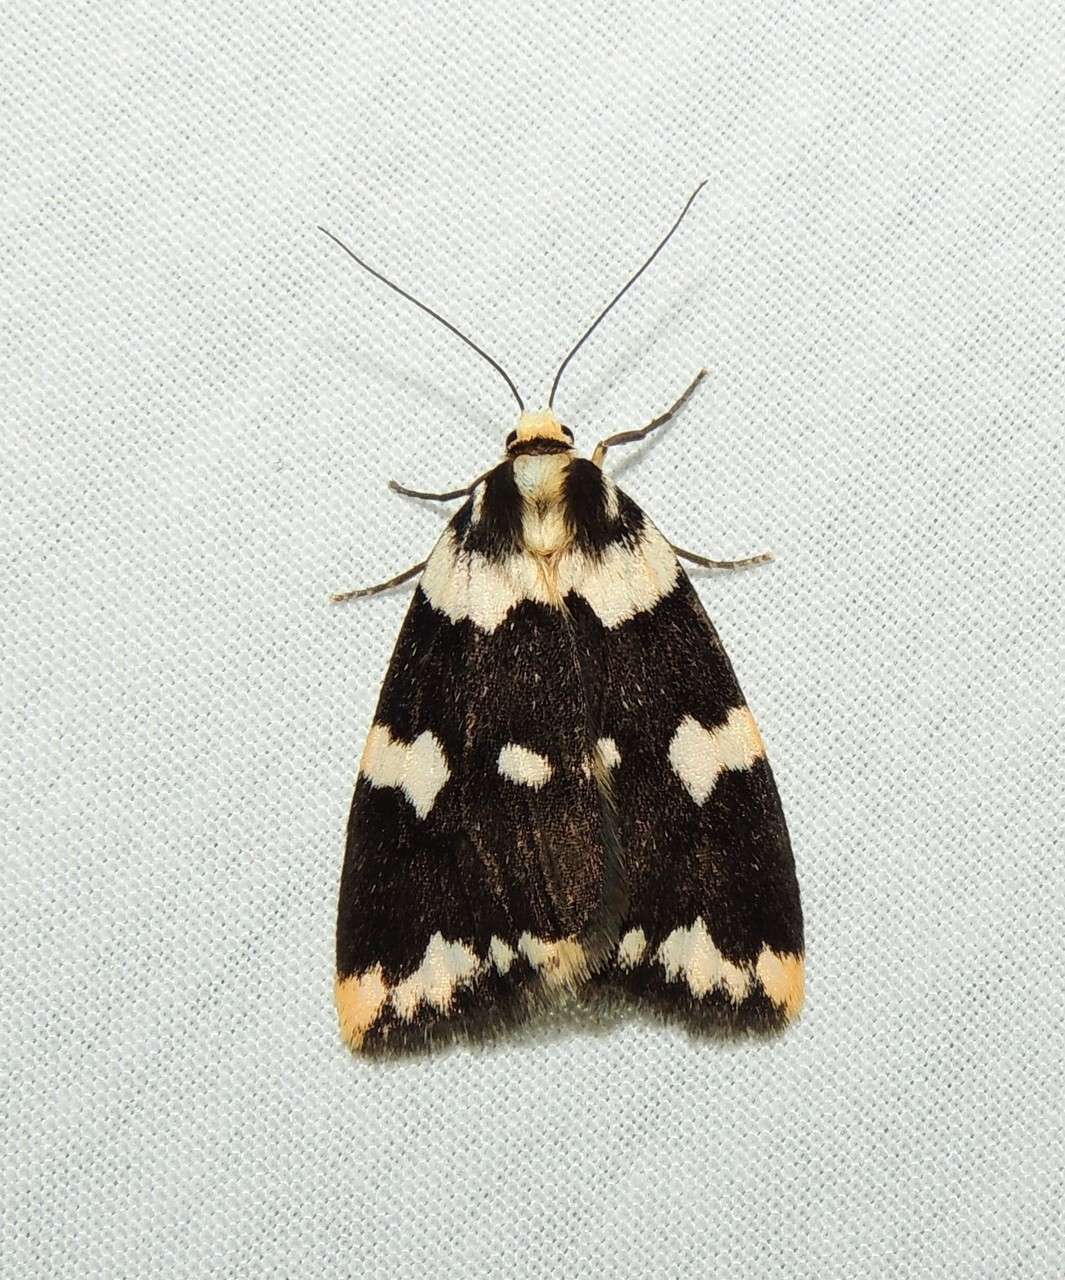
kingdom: Animalia
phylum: Arthropoda
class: Insecta
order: Lepidoptera
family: Erebidae
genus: Termessa
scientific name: Termessa shepherdi
